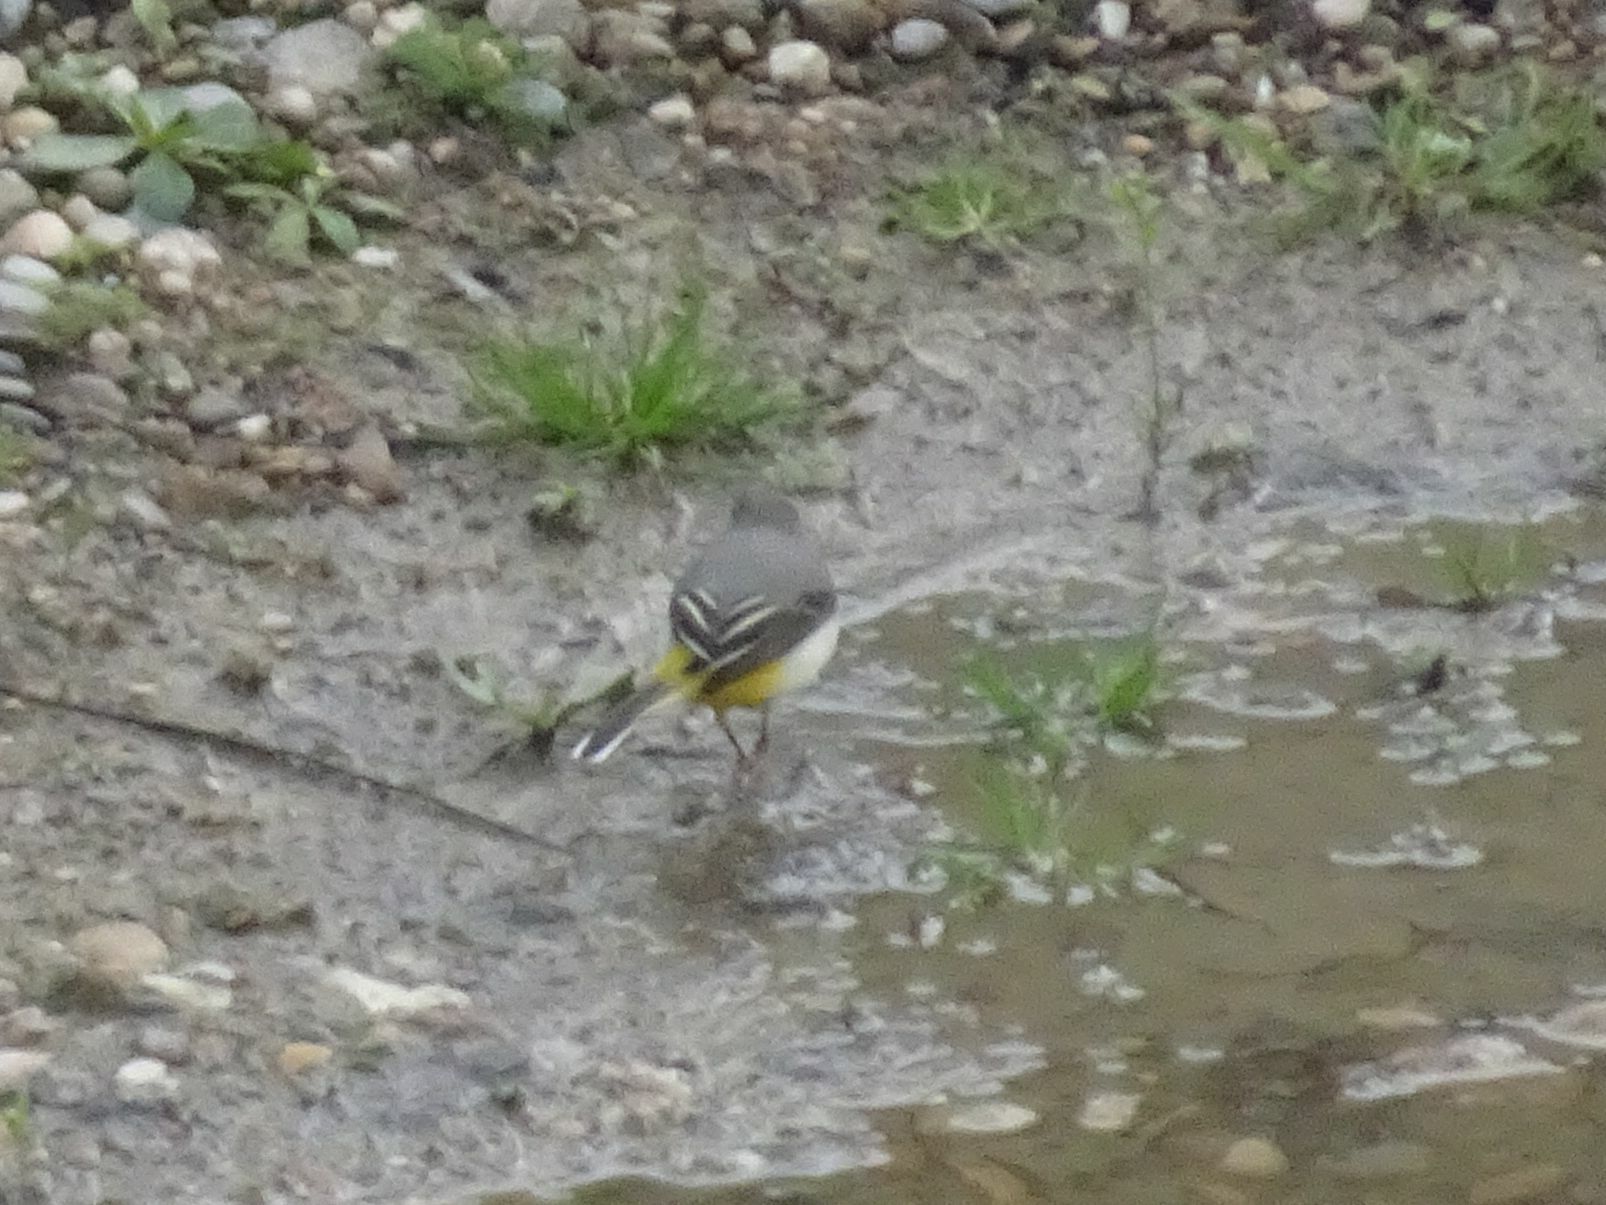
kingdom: Animalia
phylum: Chordata
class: Aves
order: Passeriformes
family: Motacillidae
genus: Motacilla
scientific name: Motacilla cinerea
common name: Grey wagtail
